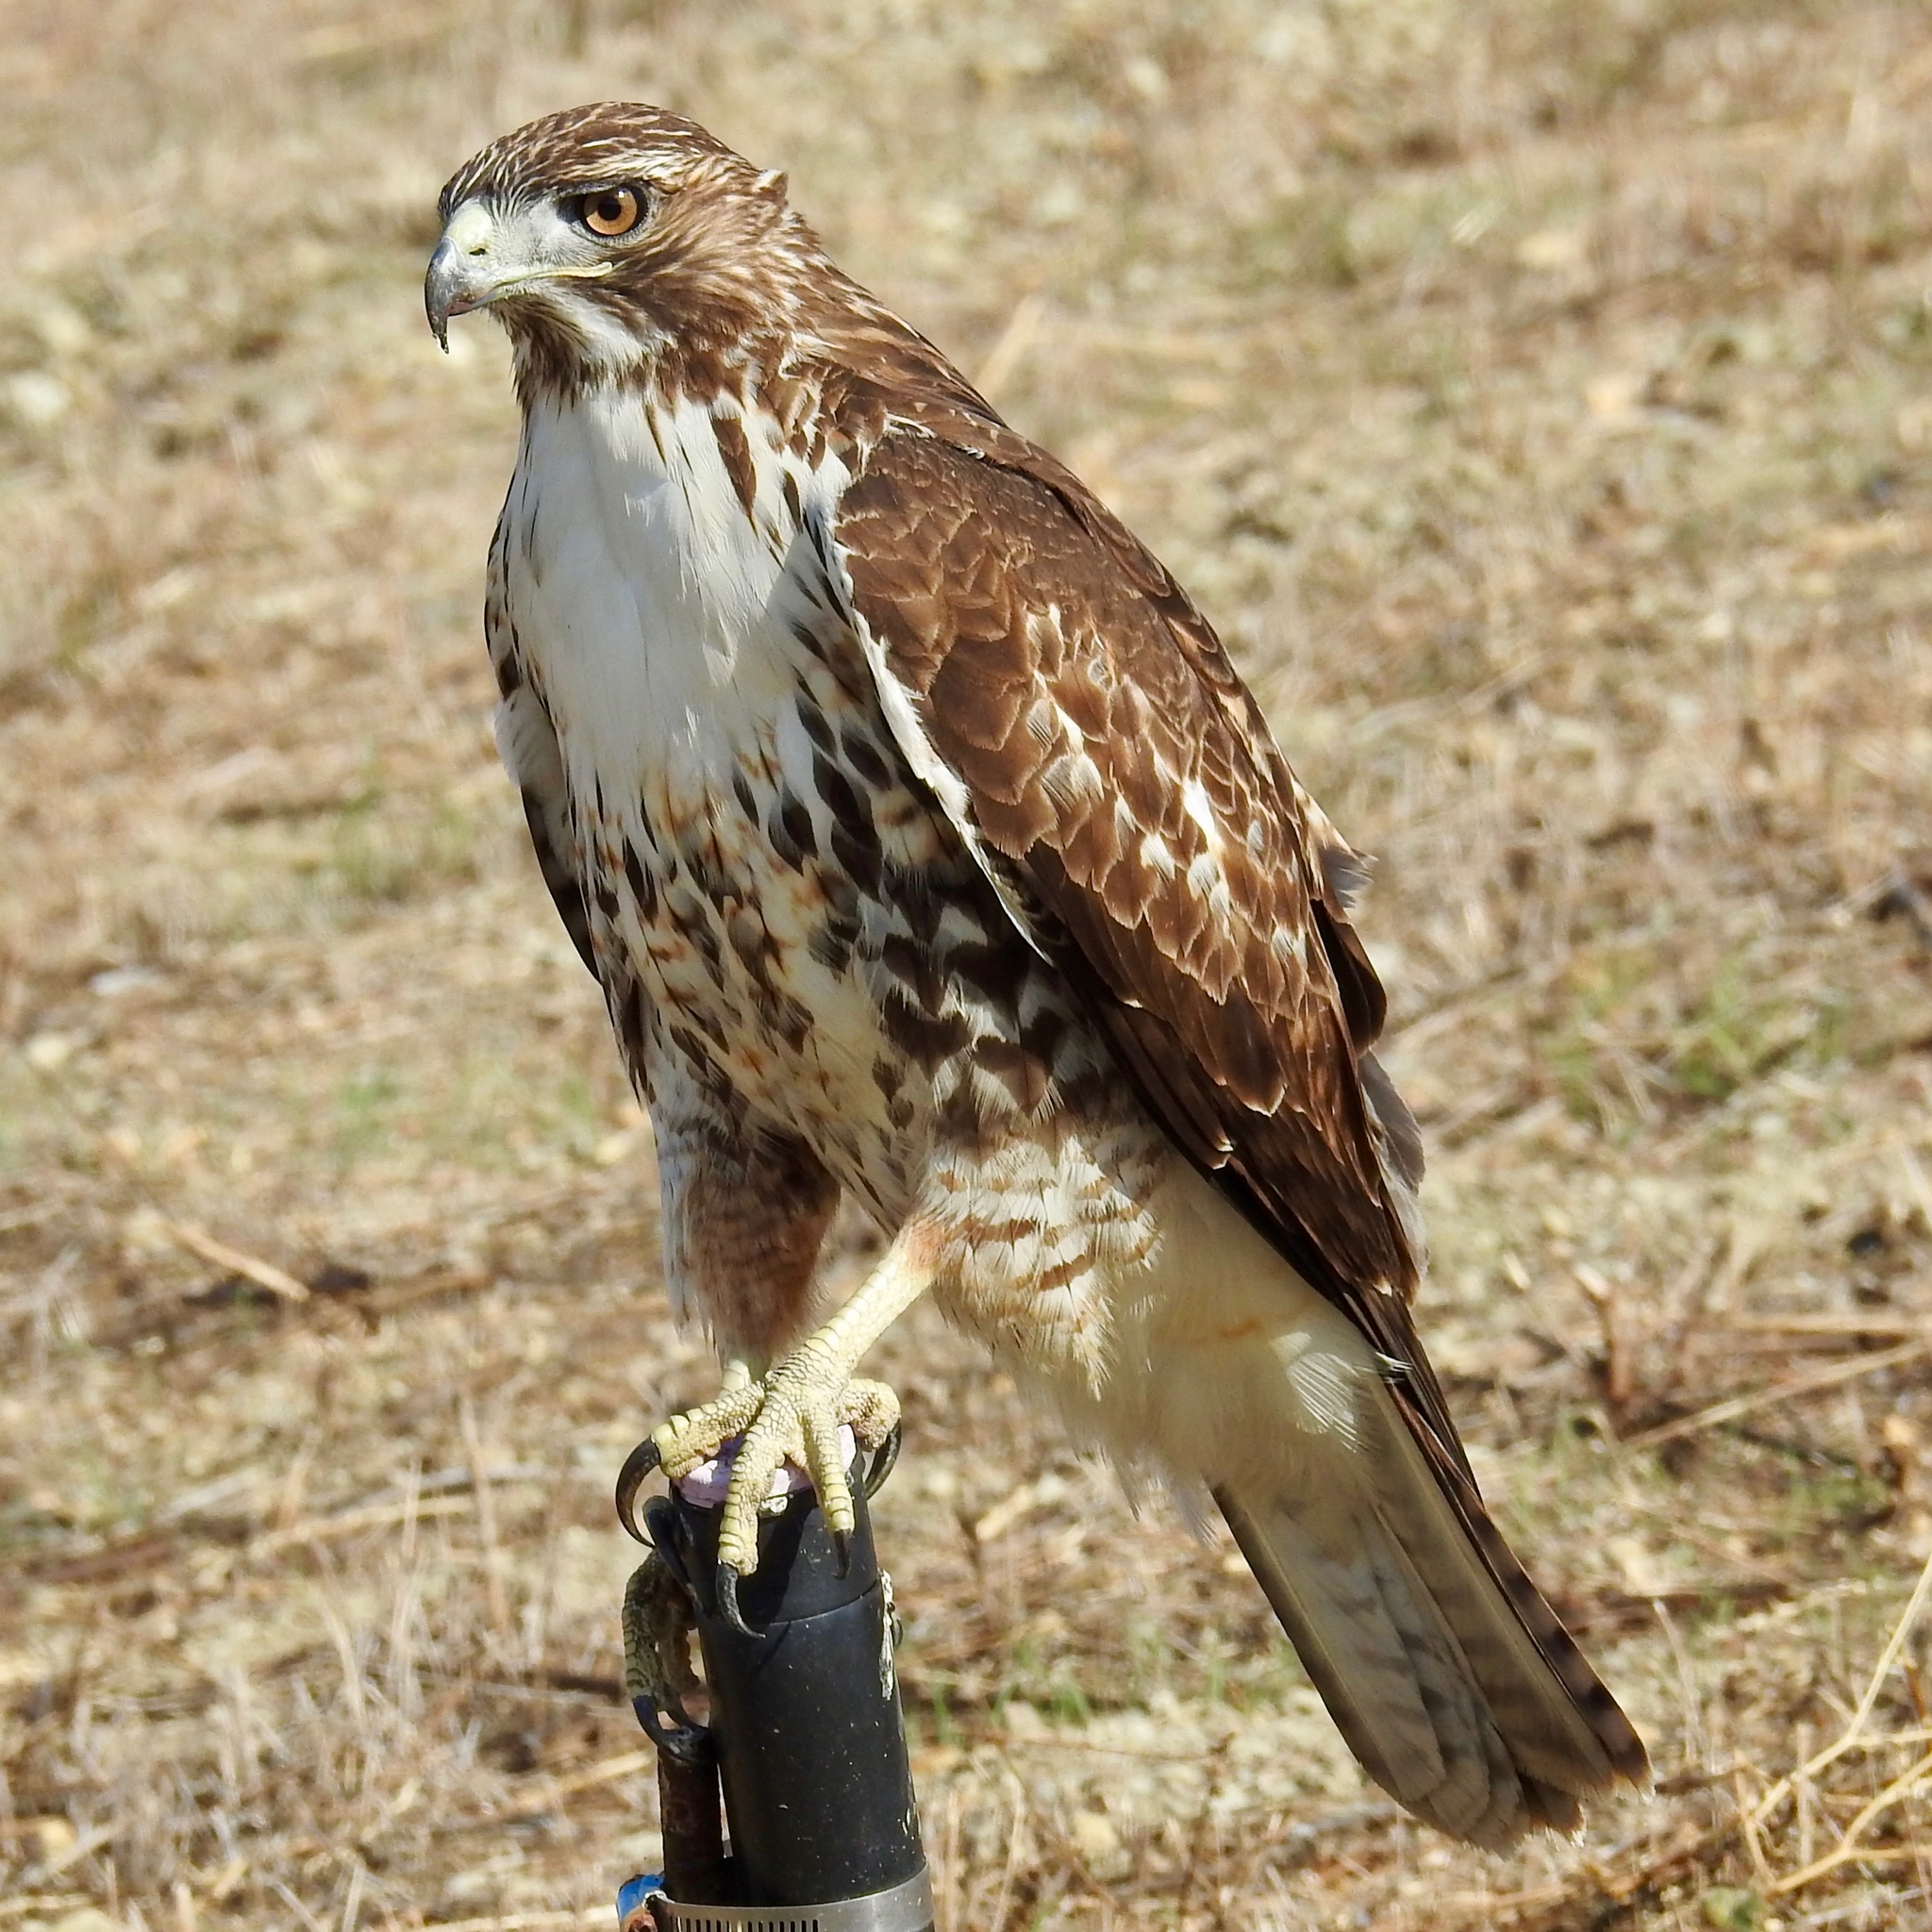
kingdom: Animalia
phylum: Chordata
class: Aves
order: Accipitriformes
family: Accipitridae
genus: Buteo
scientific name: Buteo jamaicensis
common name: Red-tailed hawk
